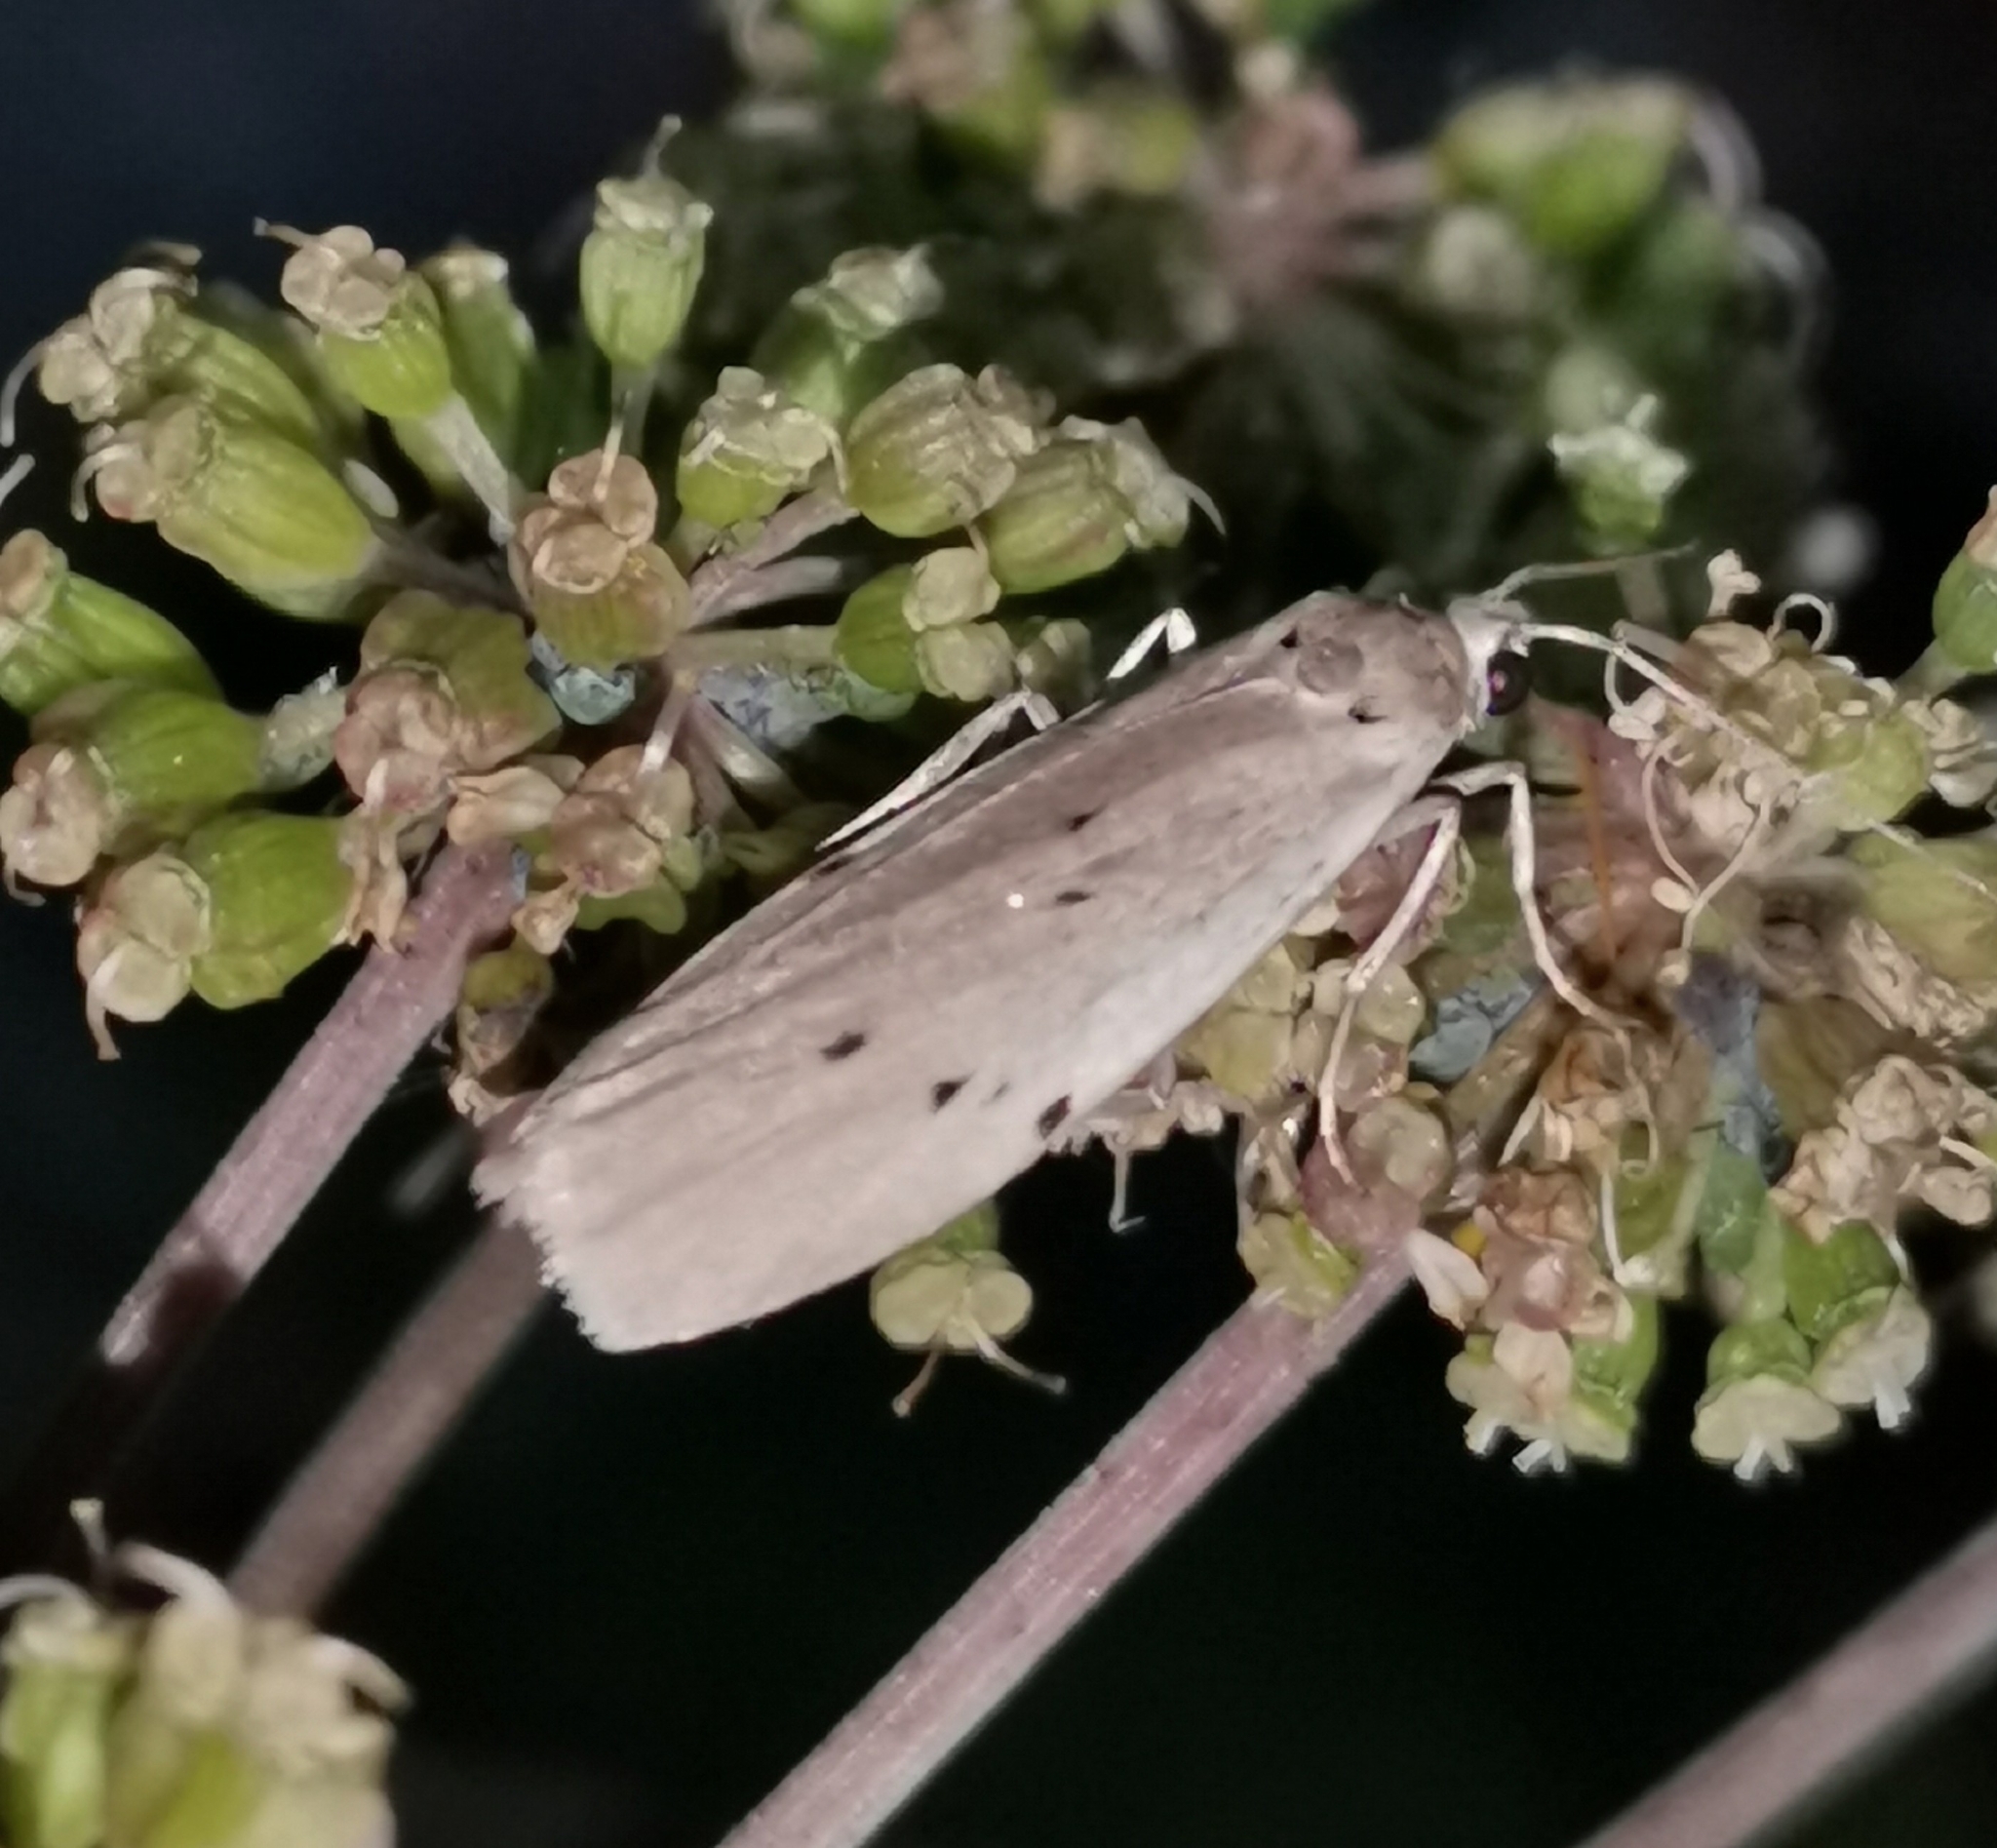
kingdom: Animalia
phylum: Arthropoda
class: Insecta
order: Lepidoptera
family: Erebidae
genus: Pelosia
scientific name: Pelosia muscerda
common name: Dotted footman
